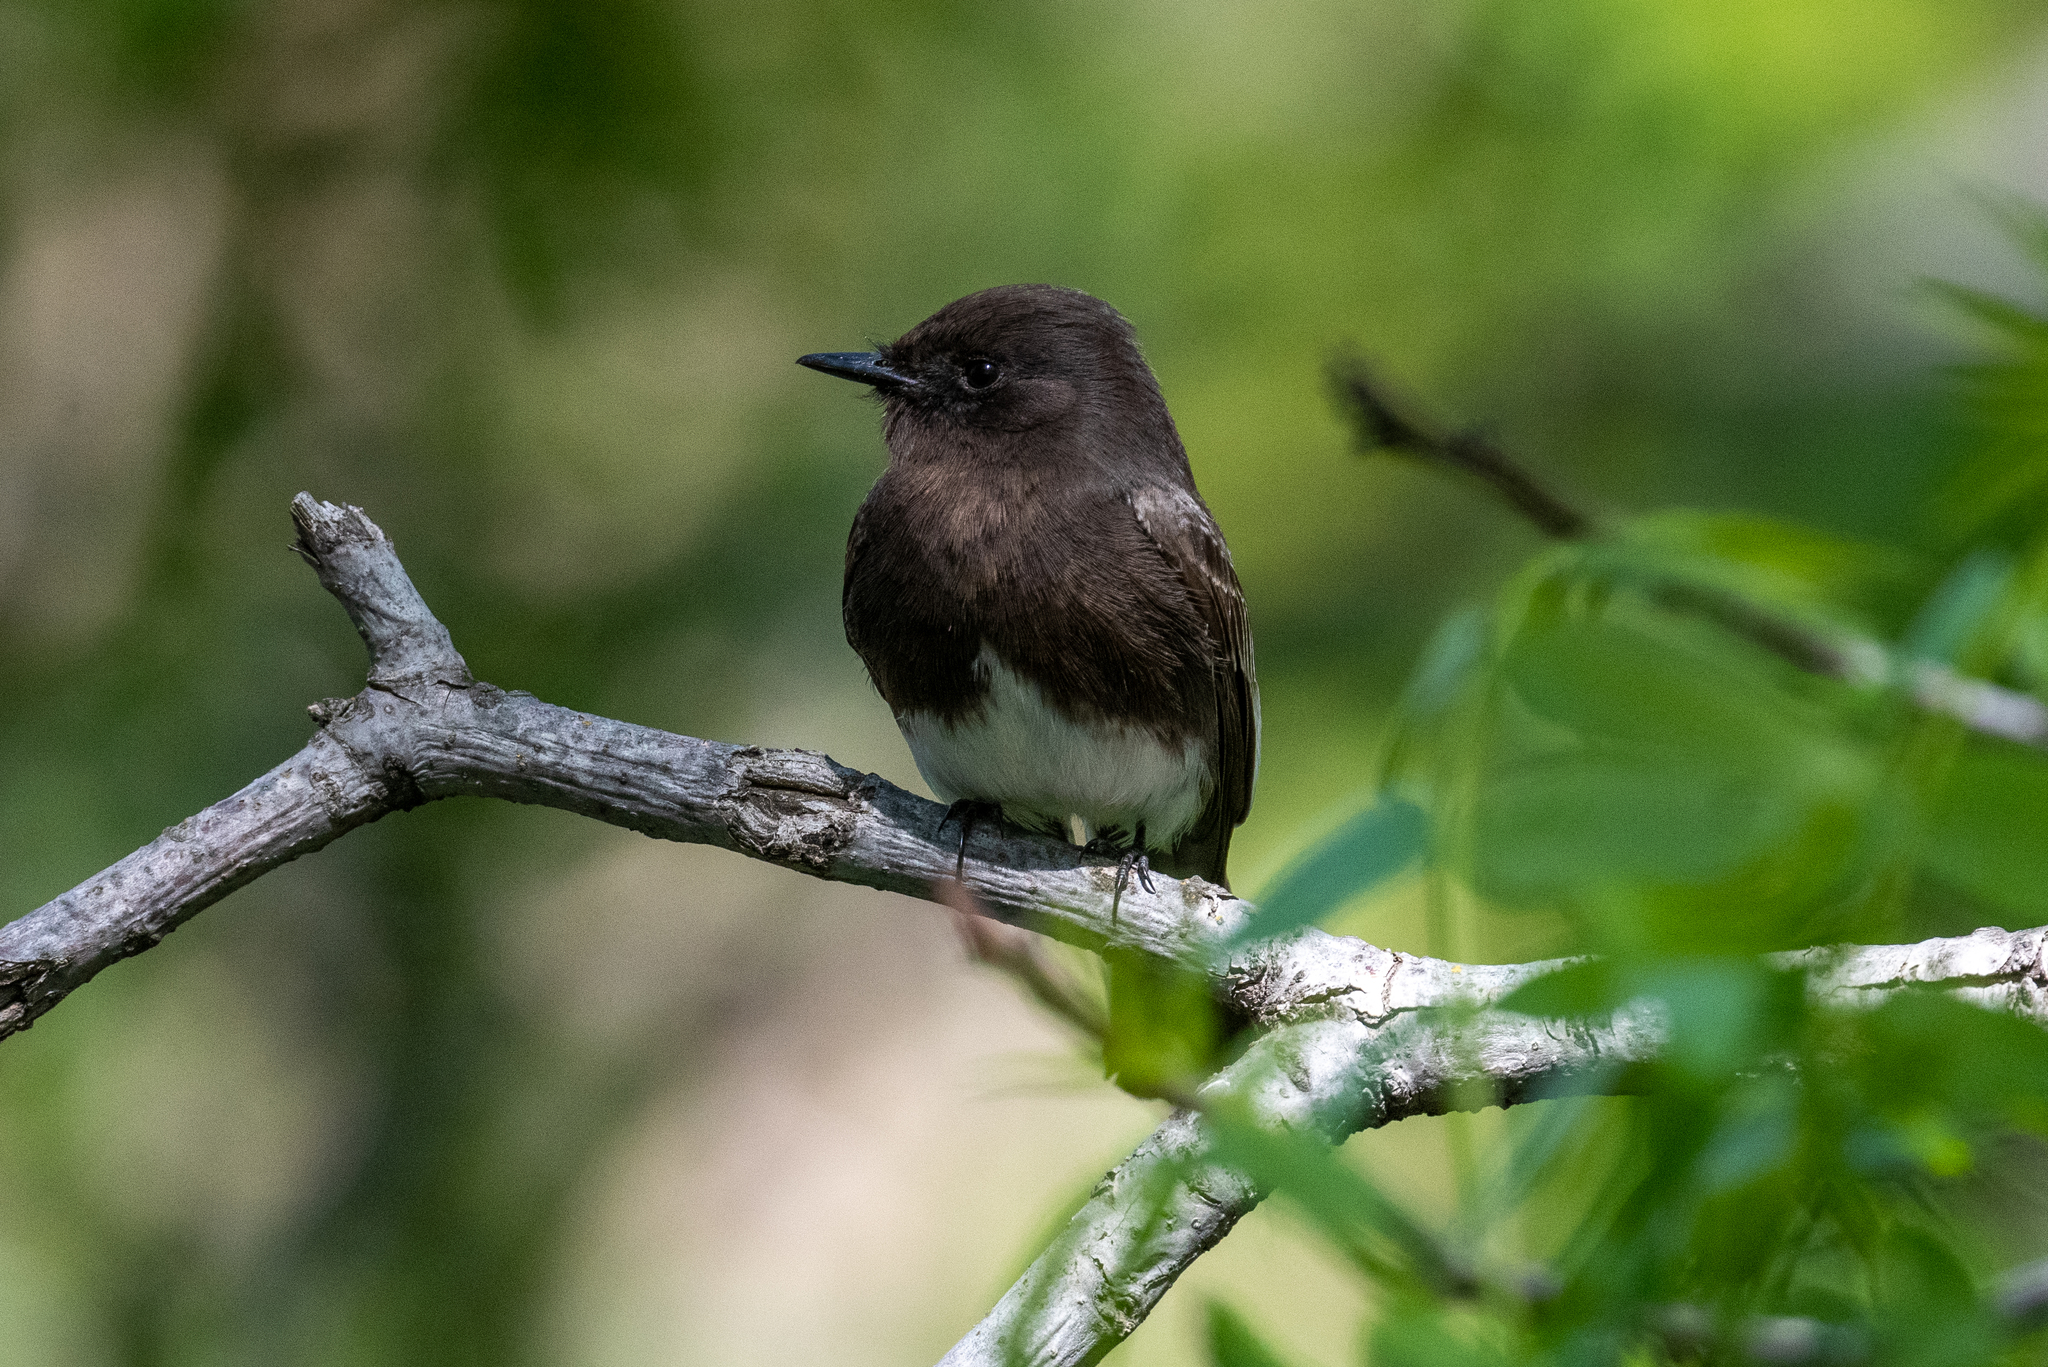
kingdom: Animalia
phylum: Chordata
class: Aves
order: Passeriformes
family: Tyrannidae
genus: Sayornis
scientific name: Sayornis nigricans
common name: Black phoebe
